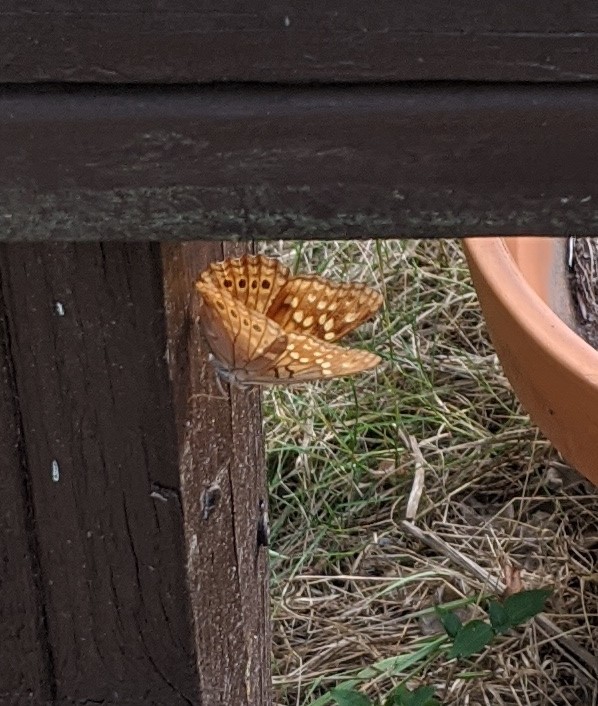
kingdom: Animalia
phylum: Arthropoda
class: Insecta
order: Lepidoptera
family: Nymphalidae
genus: Asterocampa
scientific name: Asterocampa clyton
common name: Tawny emperor
